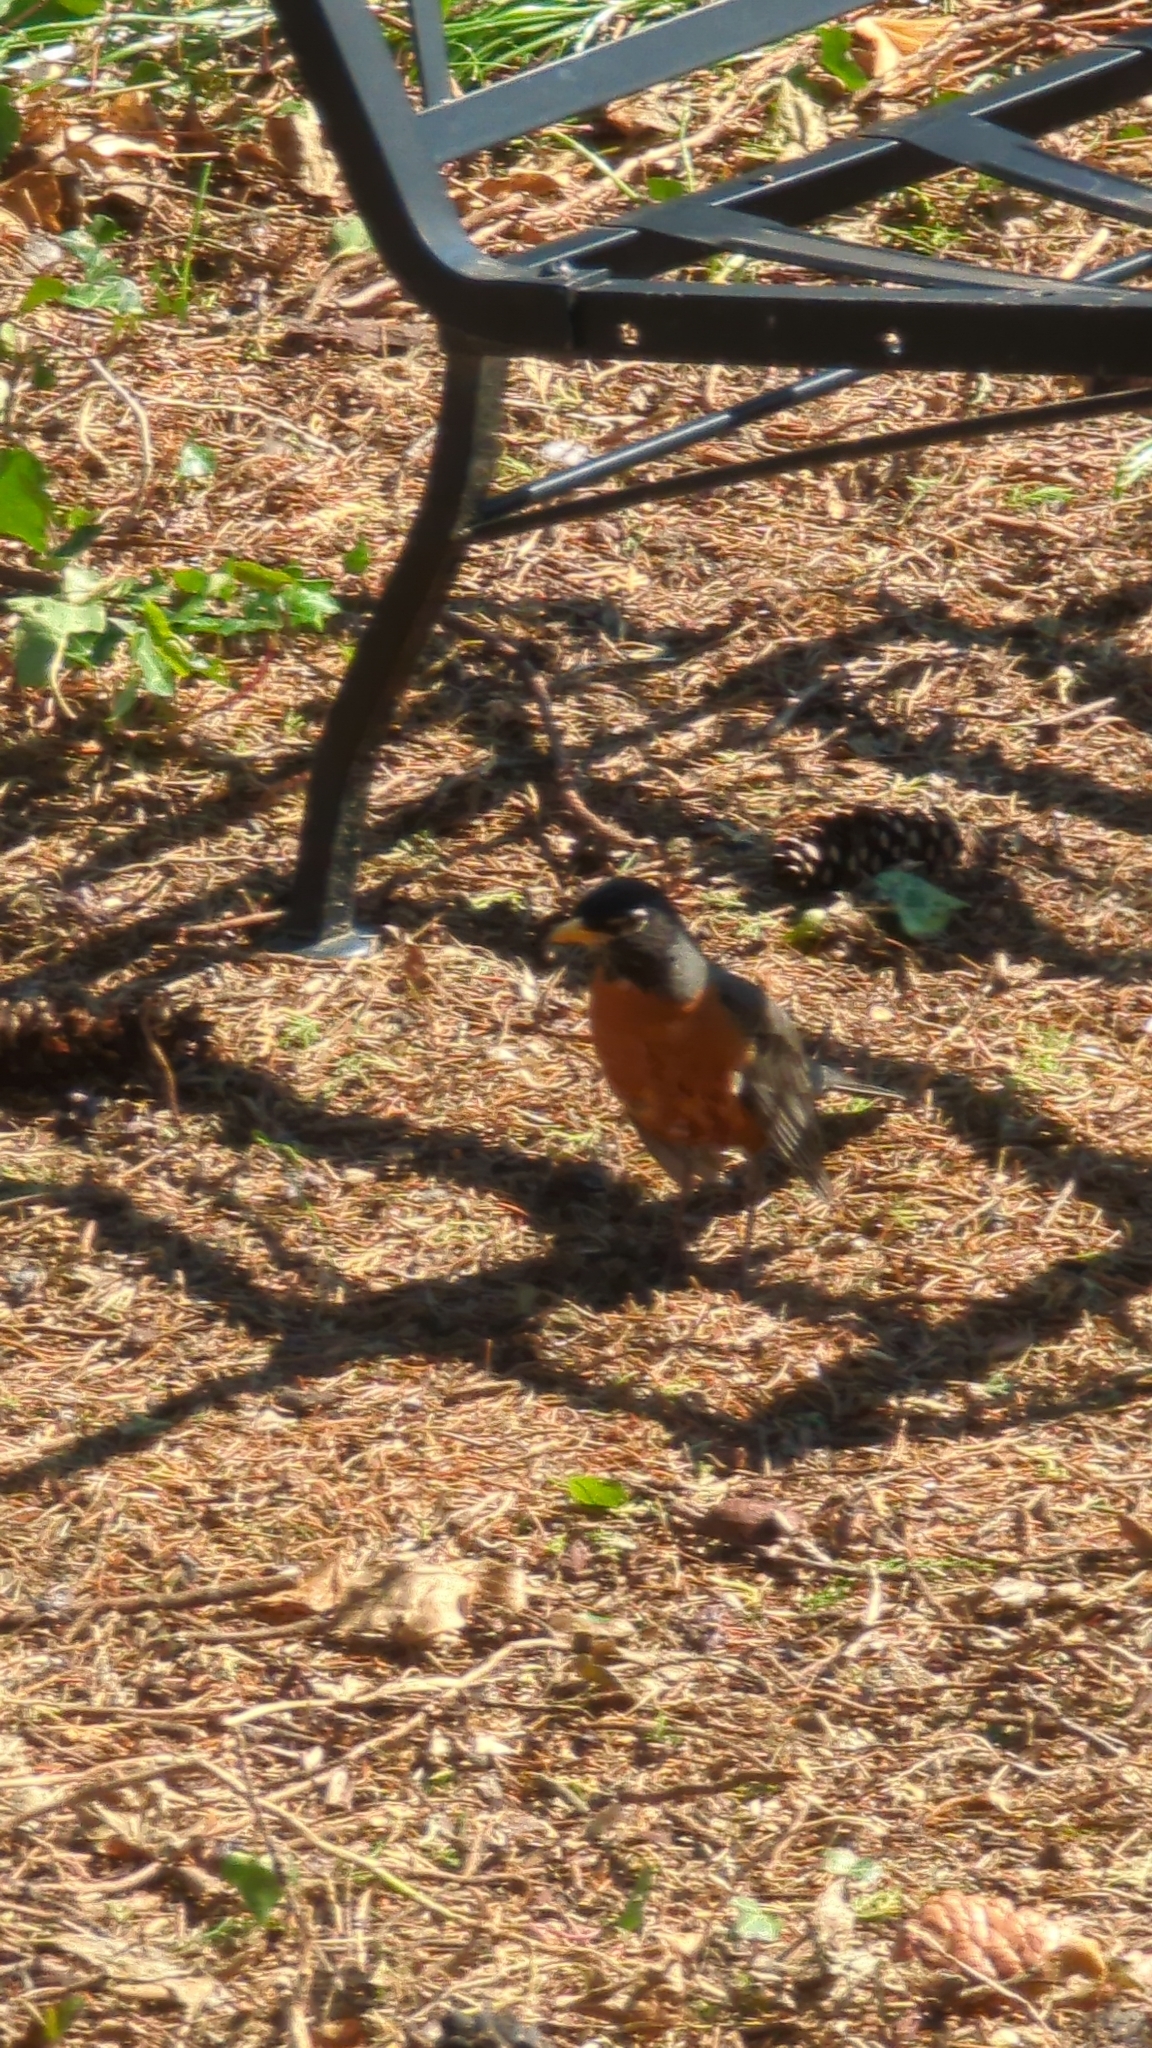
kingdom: Animalia
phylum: Chordata
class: Aves
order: Passeriformes
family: Turdidae
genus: Turdus
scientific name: Turdus migratorius
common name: American robin
